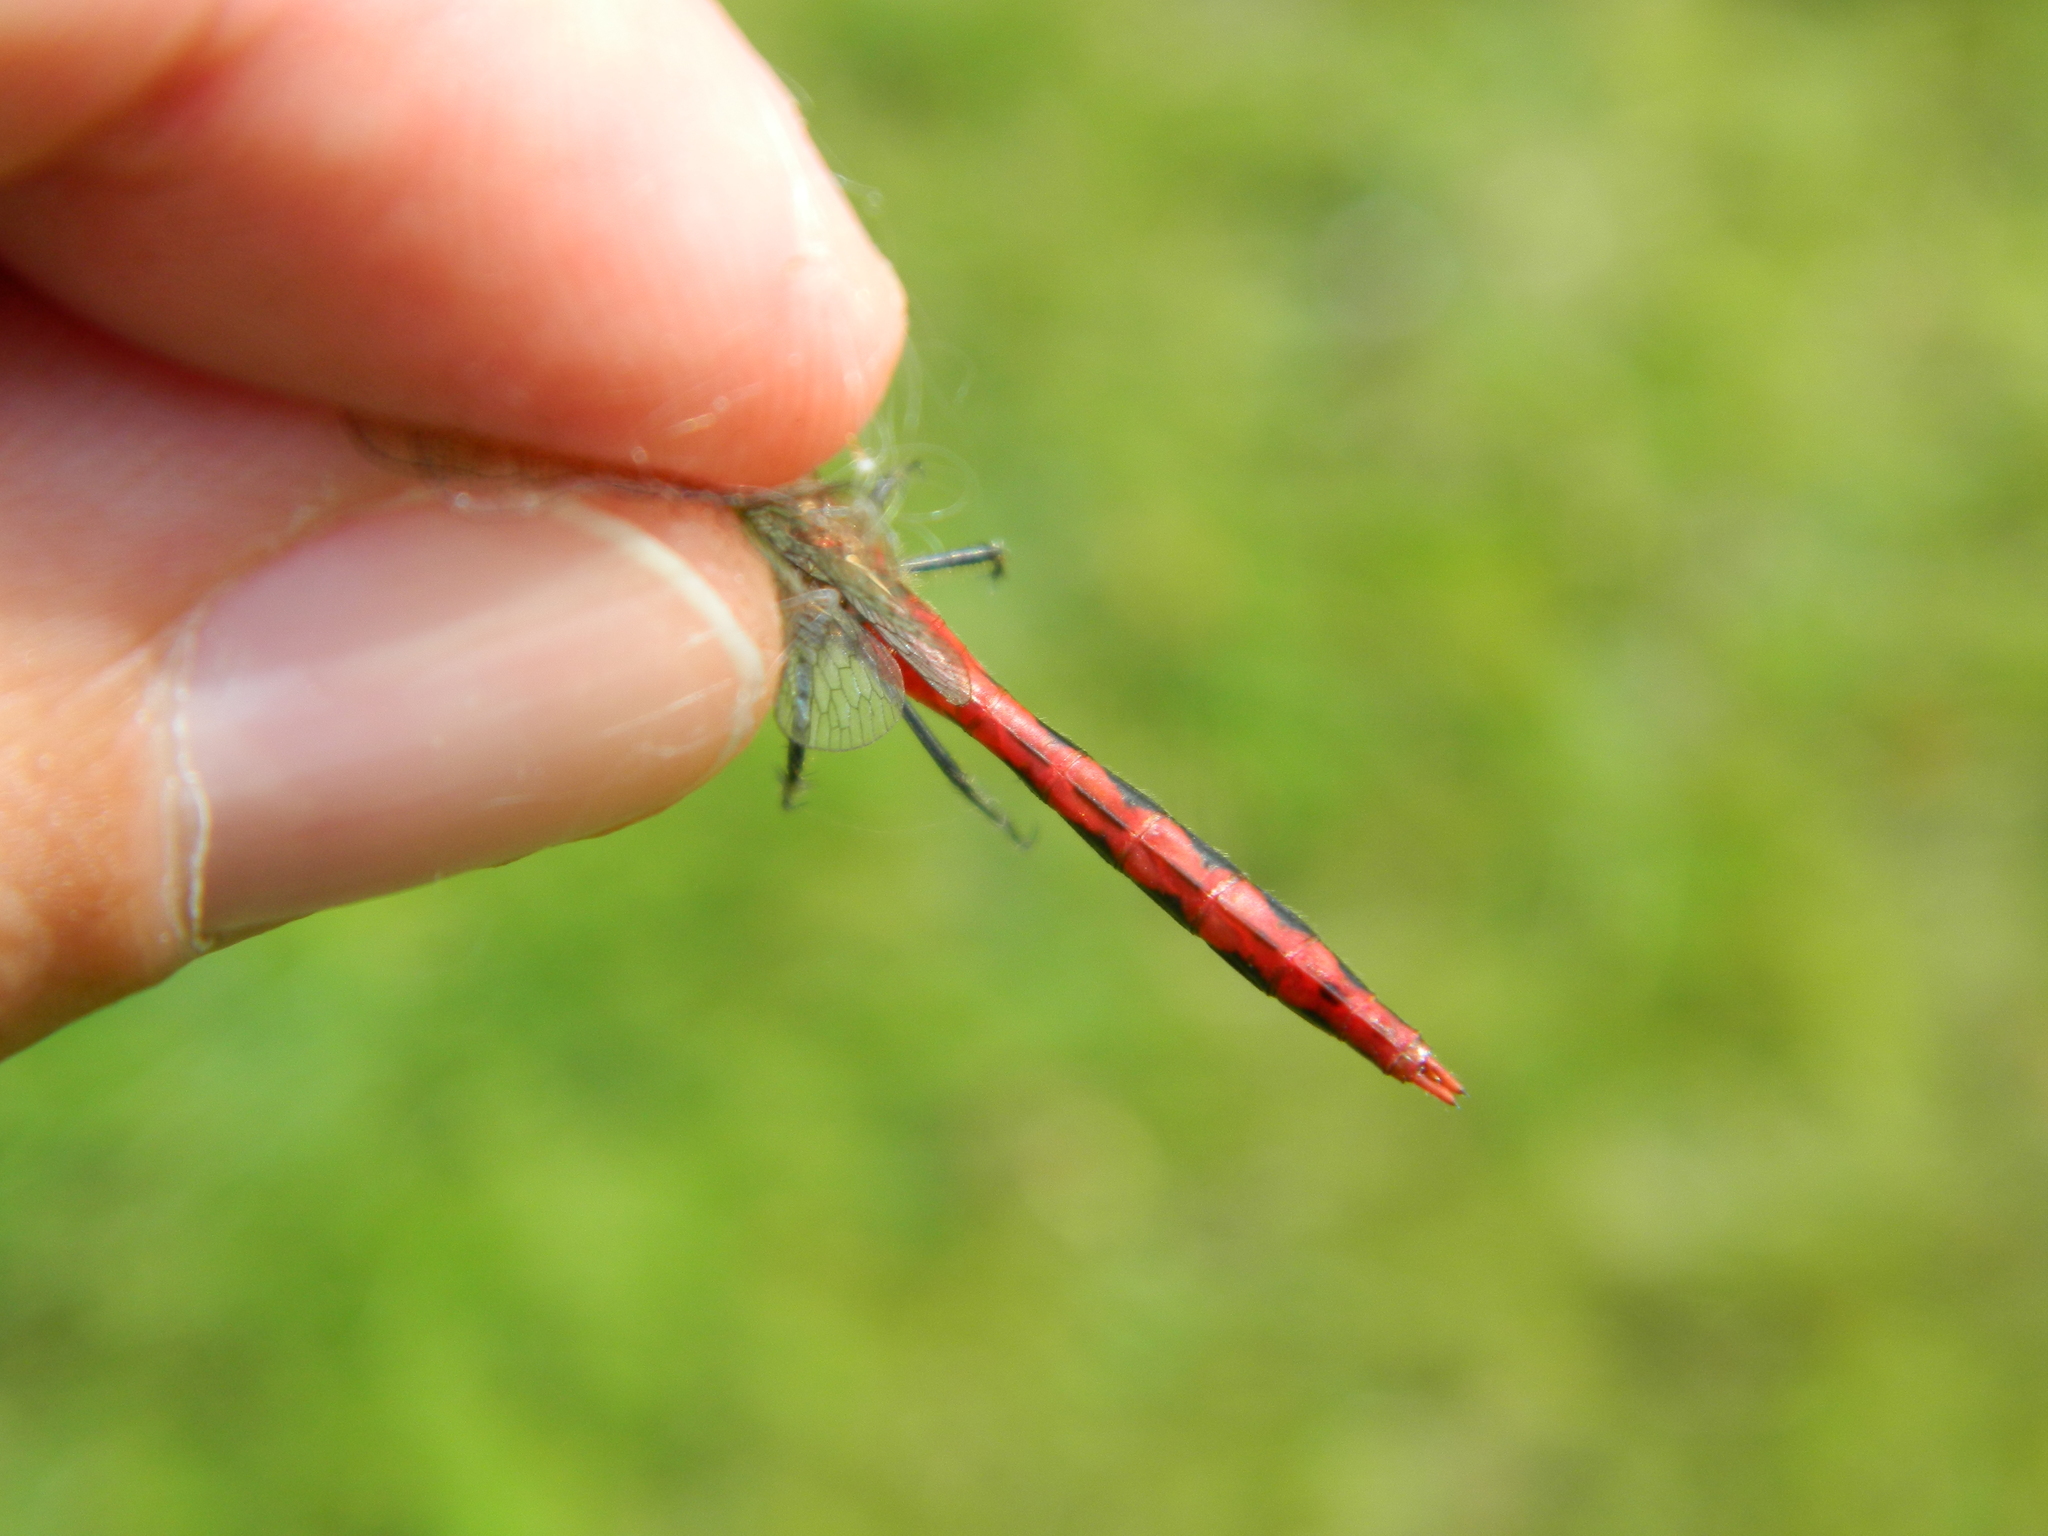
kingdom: Animalia
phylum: Arthropoda
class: Insecta
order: Odonata
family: Libellulidae
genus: Sympetrum
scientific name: Sympetrum internum
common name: Cherry-faced meadowhawk
